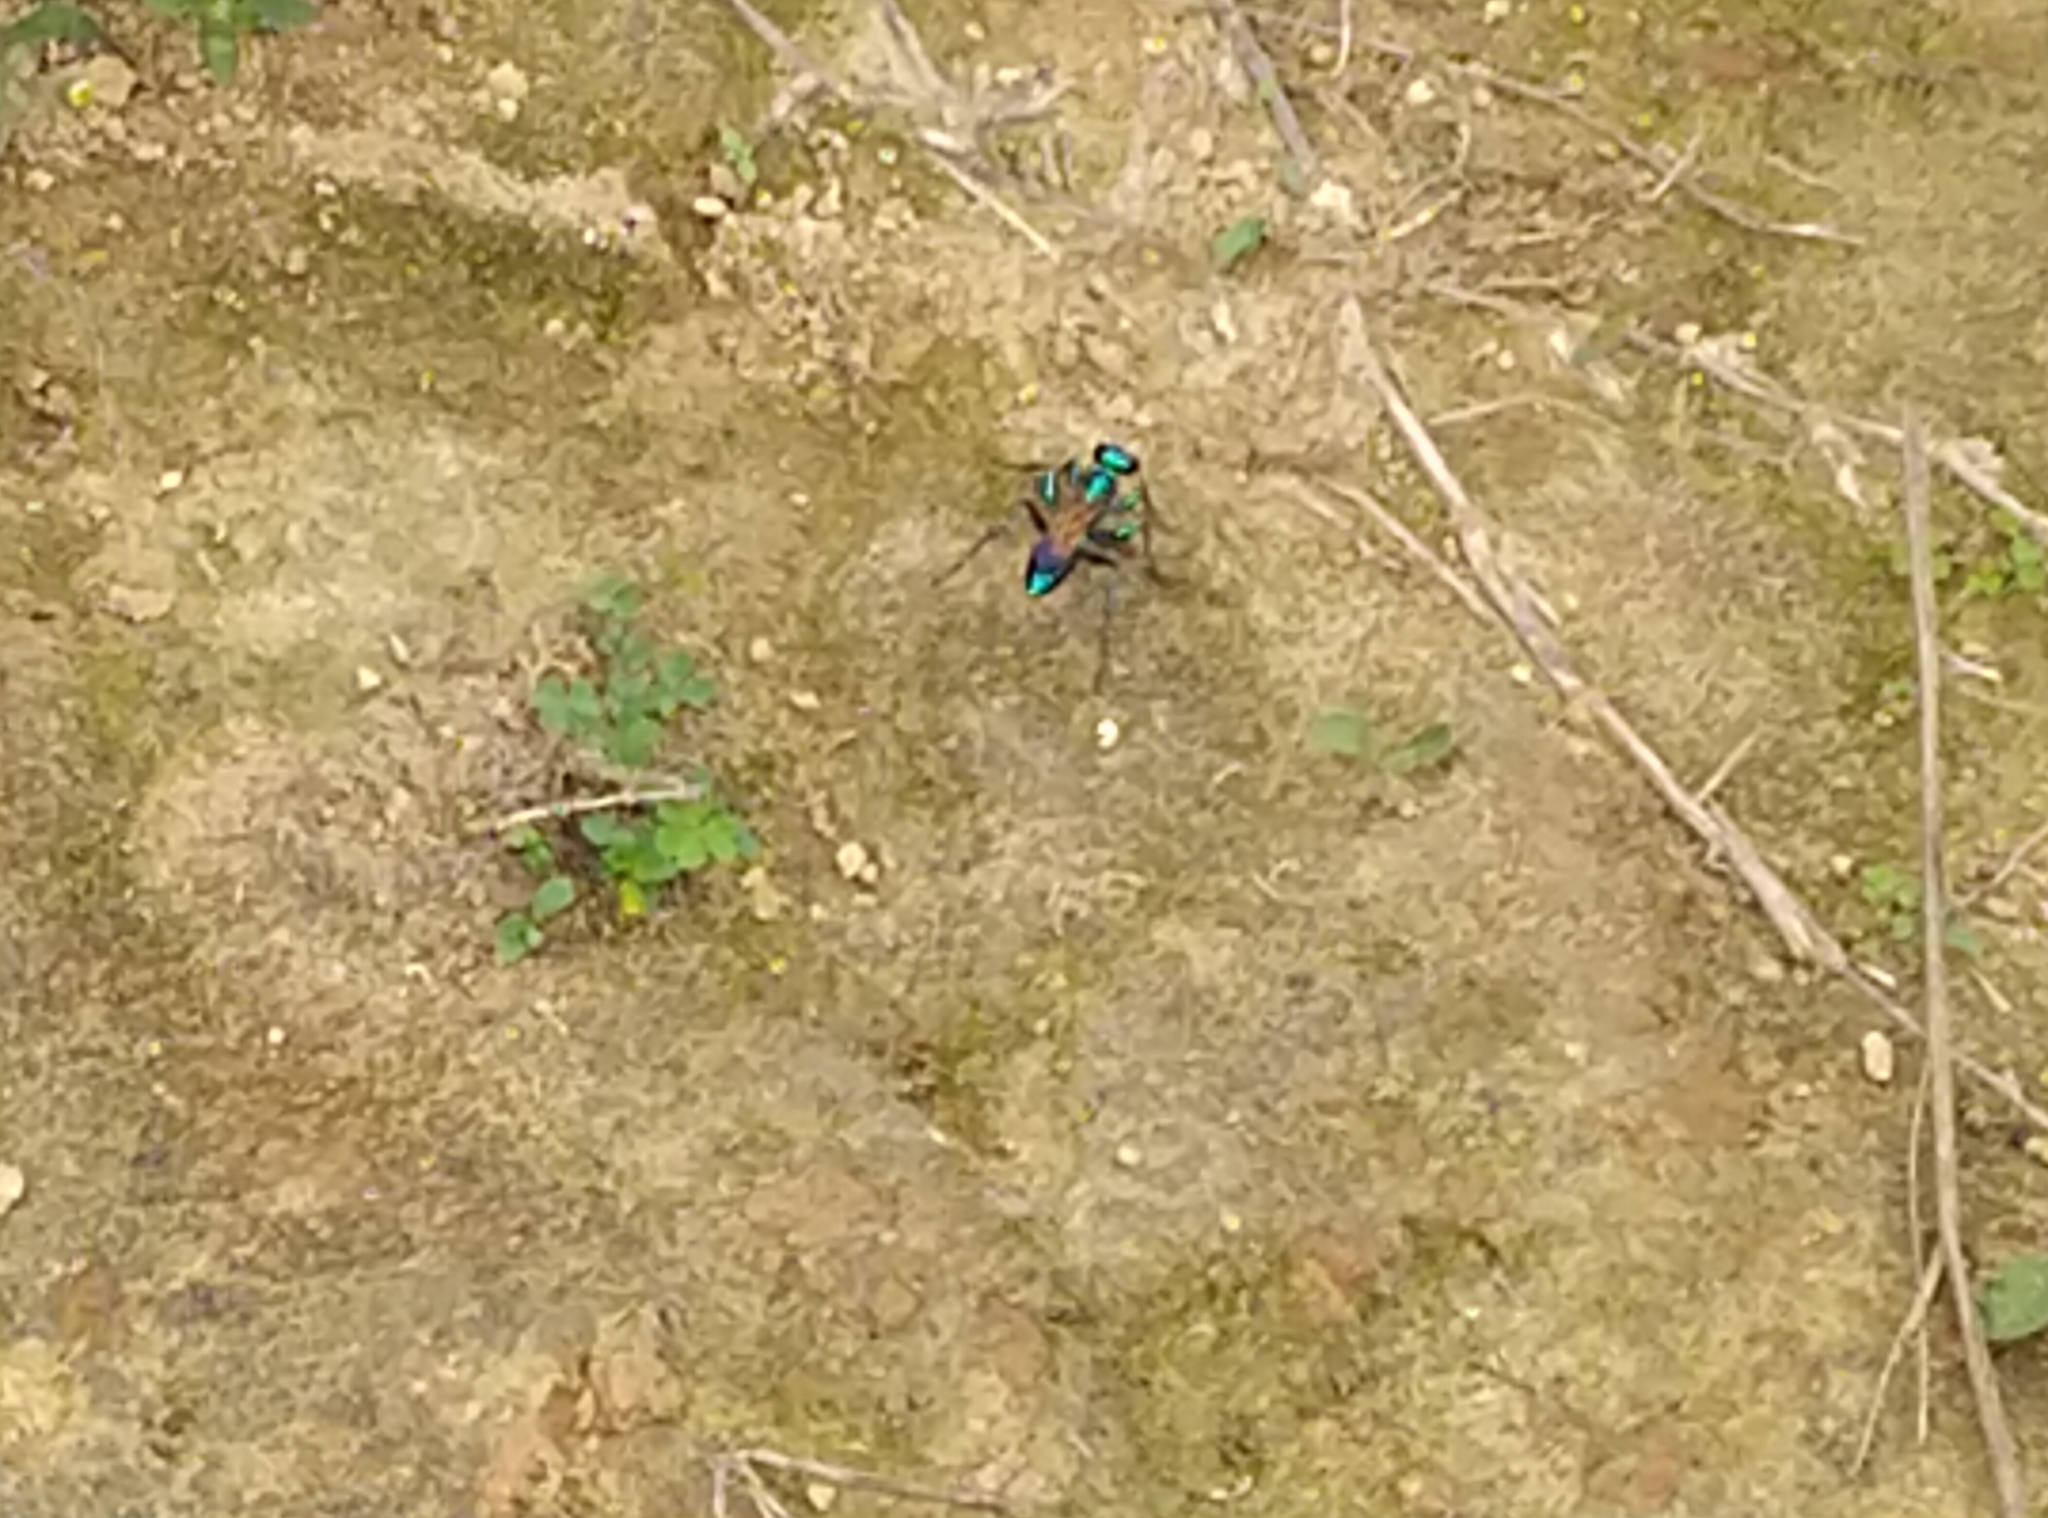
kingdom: Animalia
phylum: Arthropoda
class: Insecta
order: Hymenoptera
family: Sphecidae
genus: Chlorion
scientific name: Chlorion lobatum
